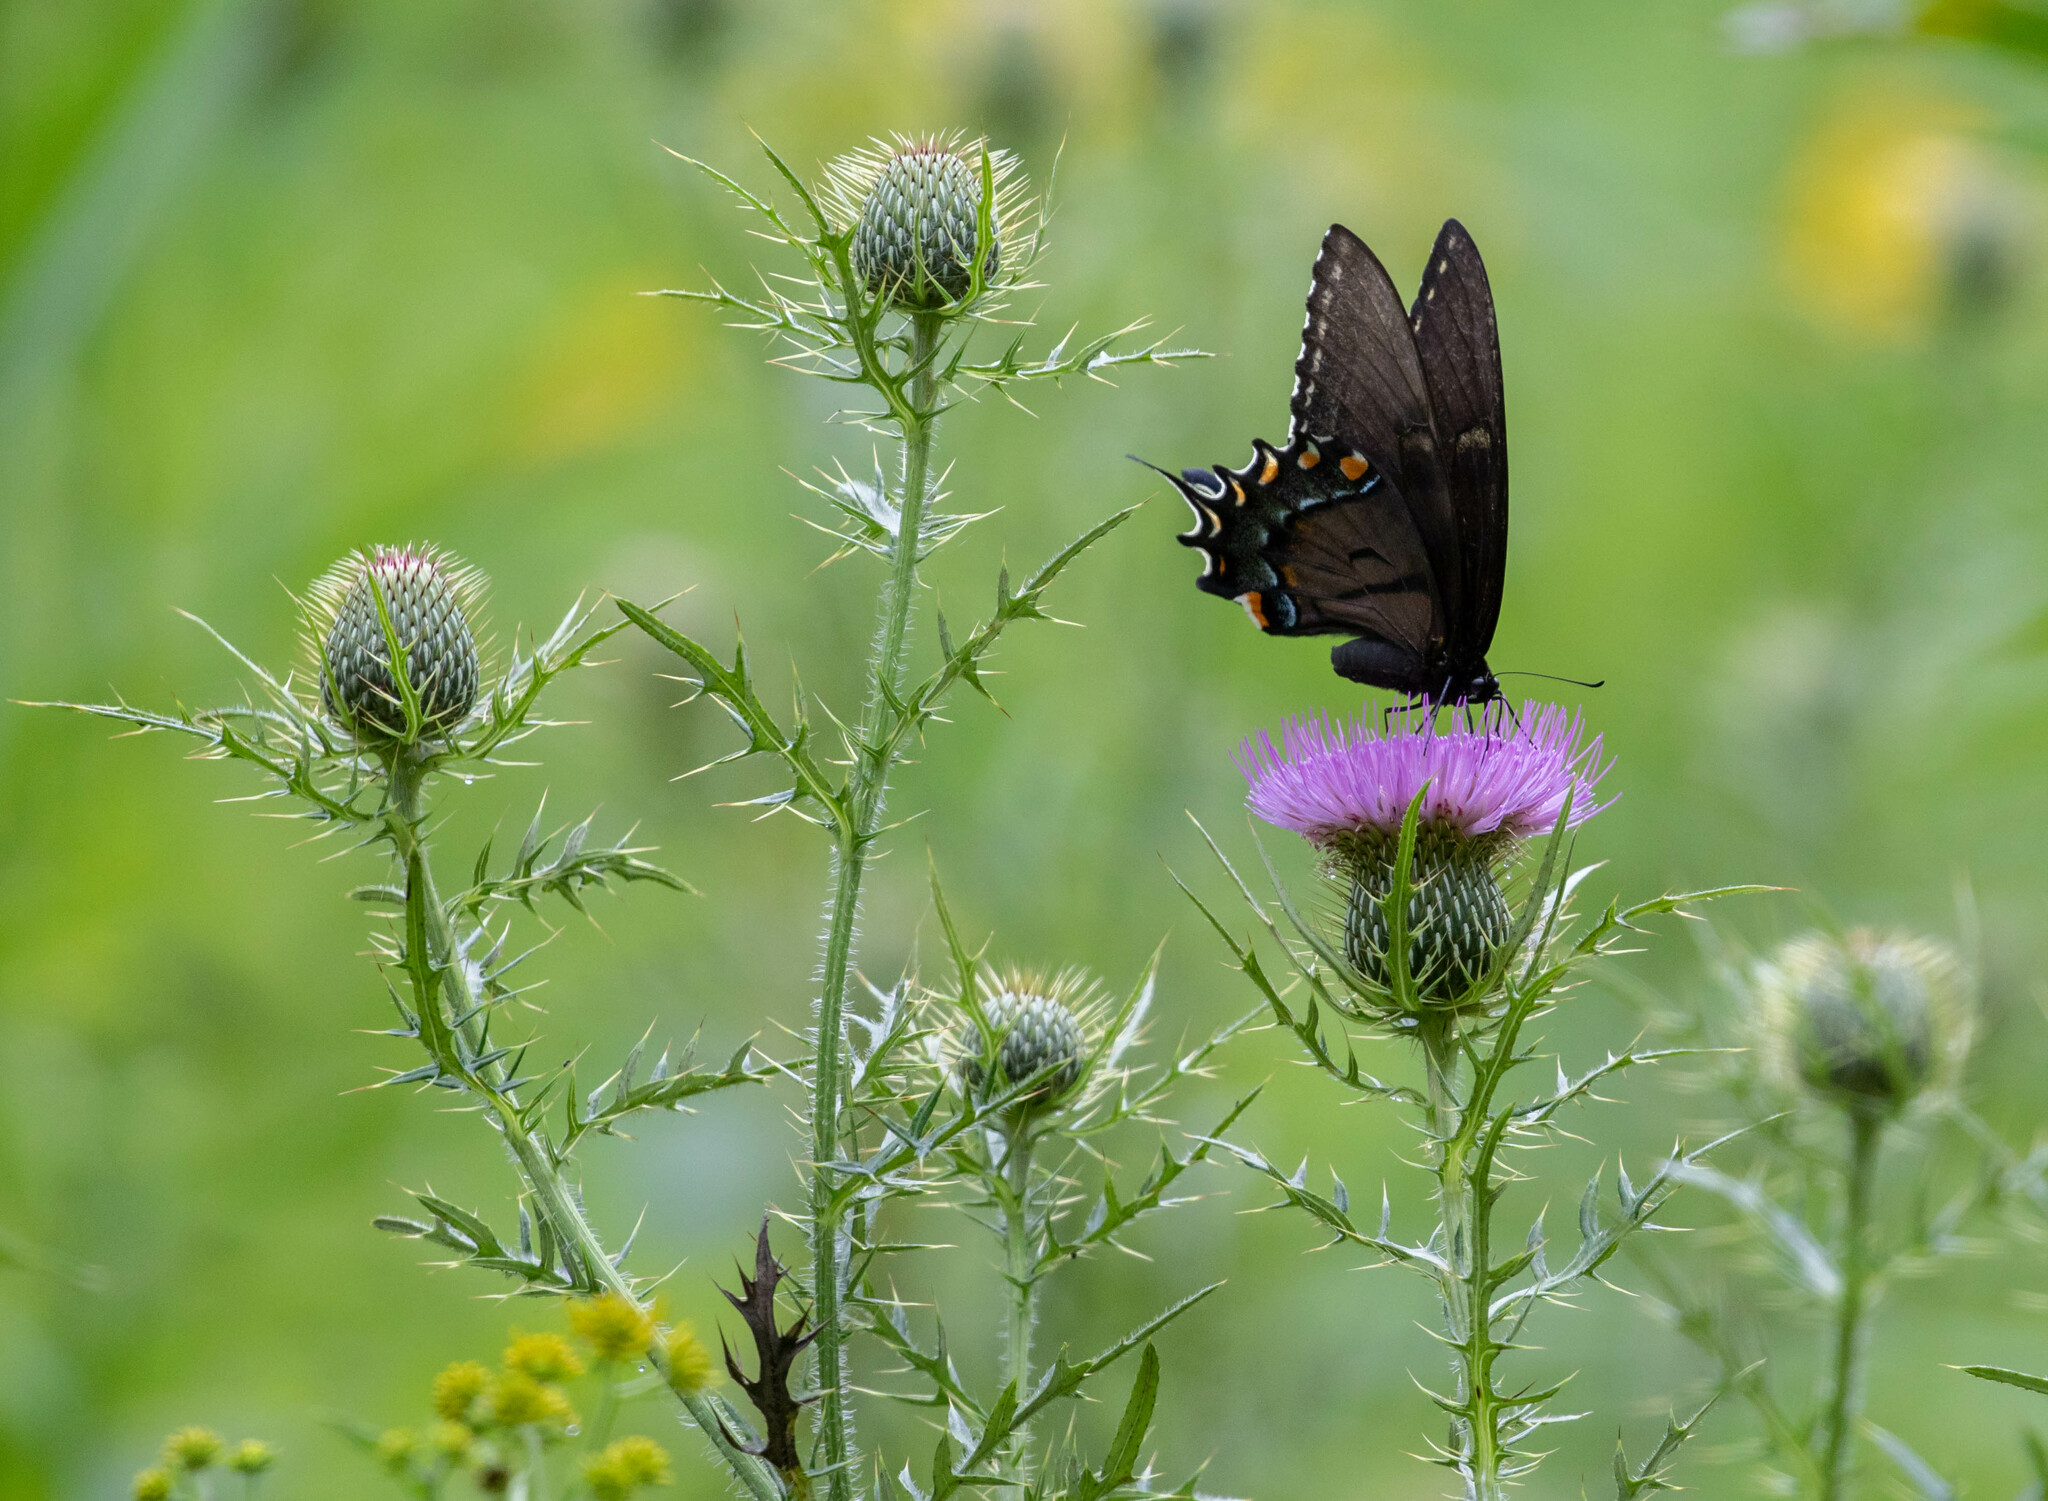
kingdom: Animalia
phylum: Arthropoda
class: Insecta
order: Lepidoptera
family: Papilionidae
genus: Papilio
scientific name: Papilio glaucus
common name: Tiger swallowtail
